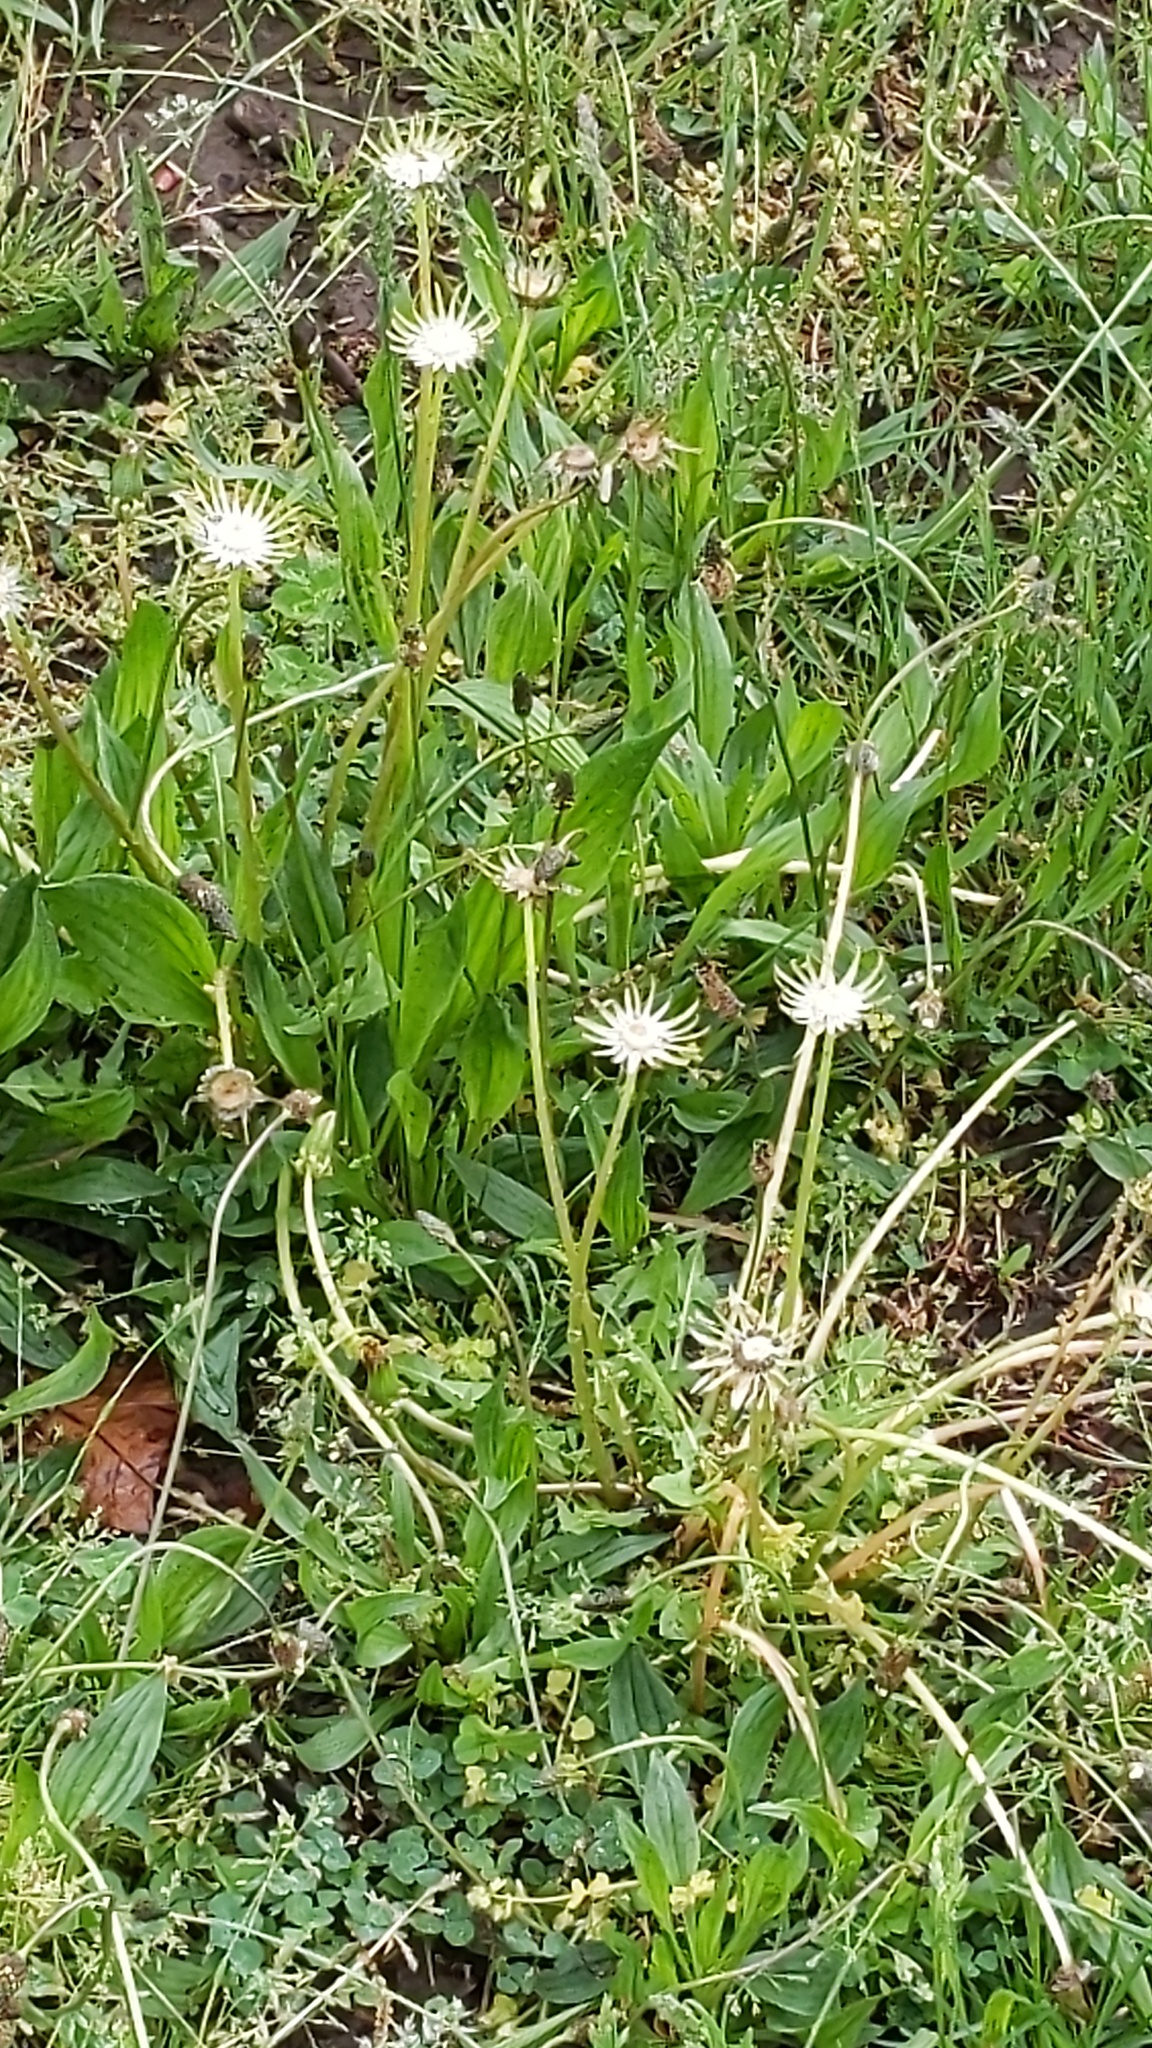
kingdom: Plantae
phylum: Tracheophyta
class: Magnoliopsida
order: Asterales
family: Asteraceae
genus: Taraxacum
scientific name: Taraxacum officinale
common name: Common dandelion
